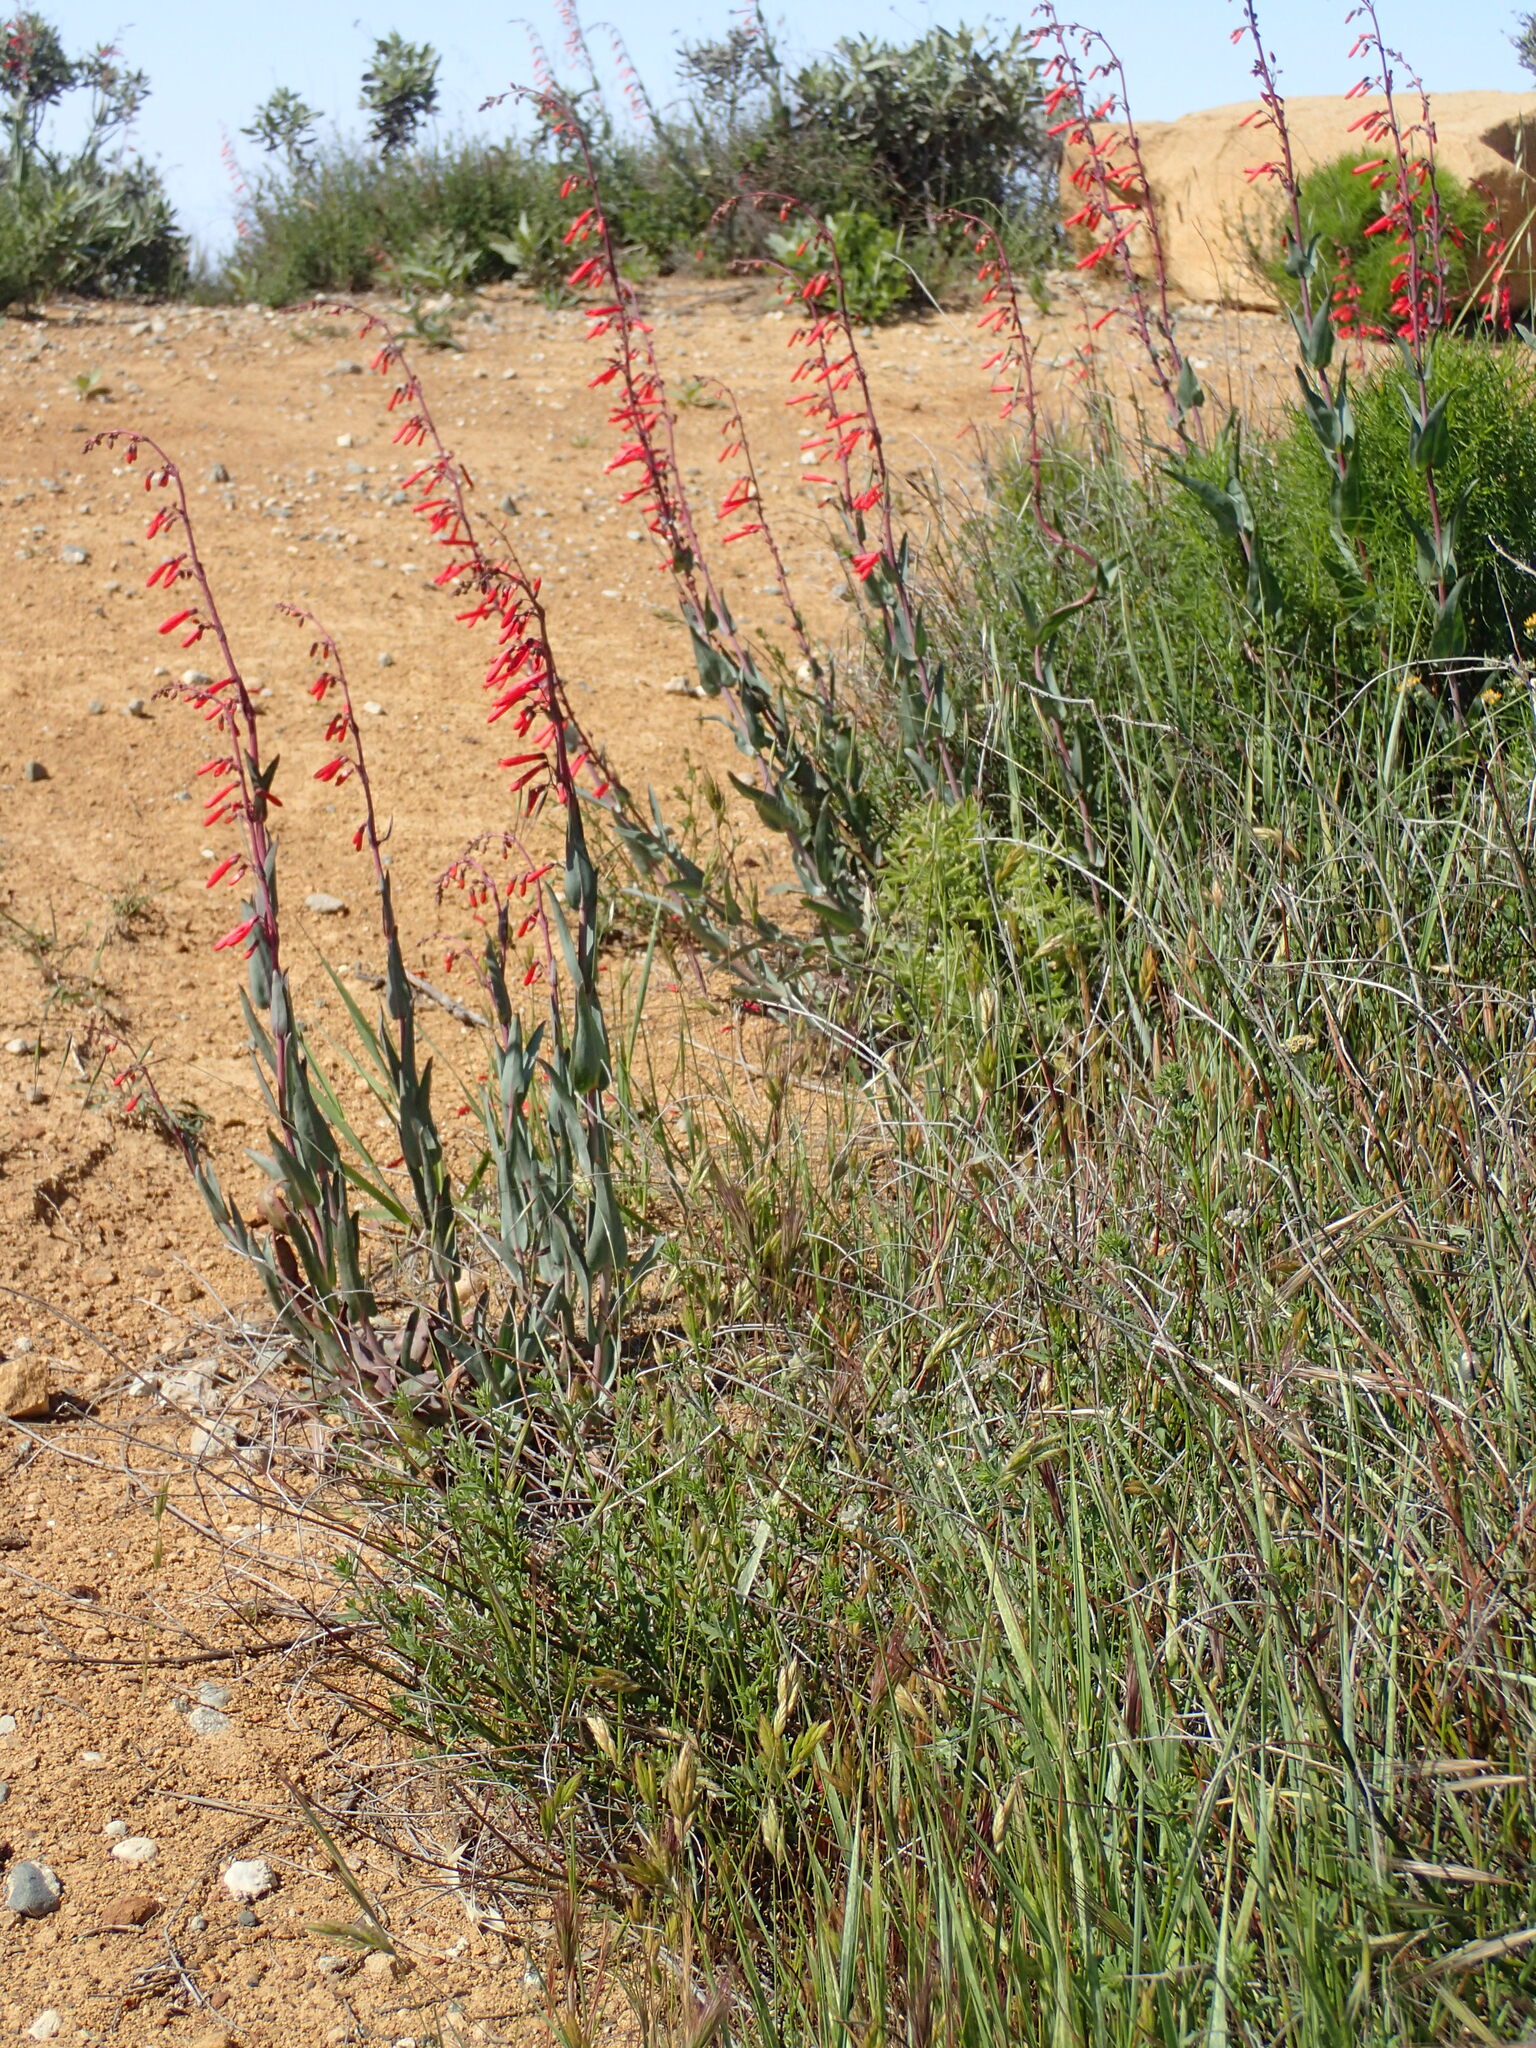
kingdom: Plantae
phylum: Tracheophyta
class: Magnoliopsida
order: Lamiales
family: Plantaginaceae
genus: Penstemon
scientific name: Penstemon centranthifolius
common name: Scarlet bugler
